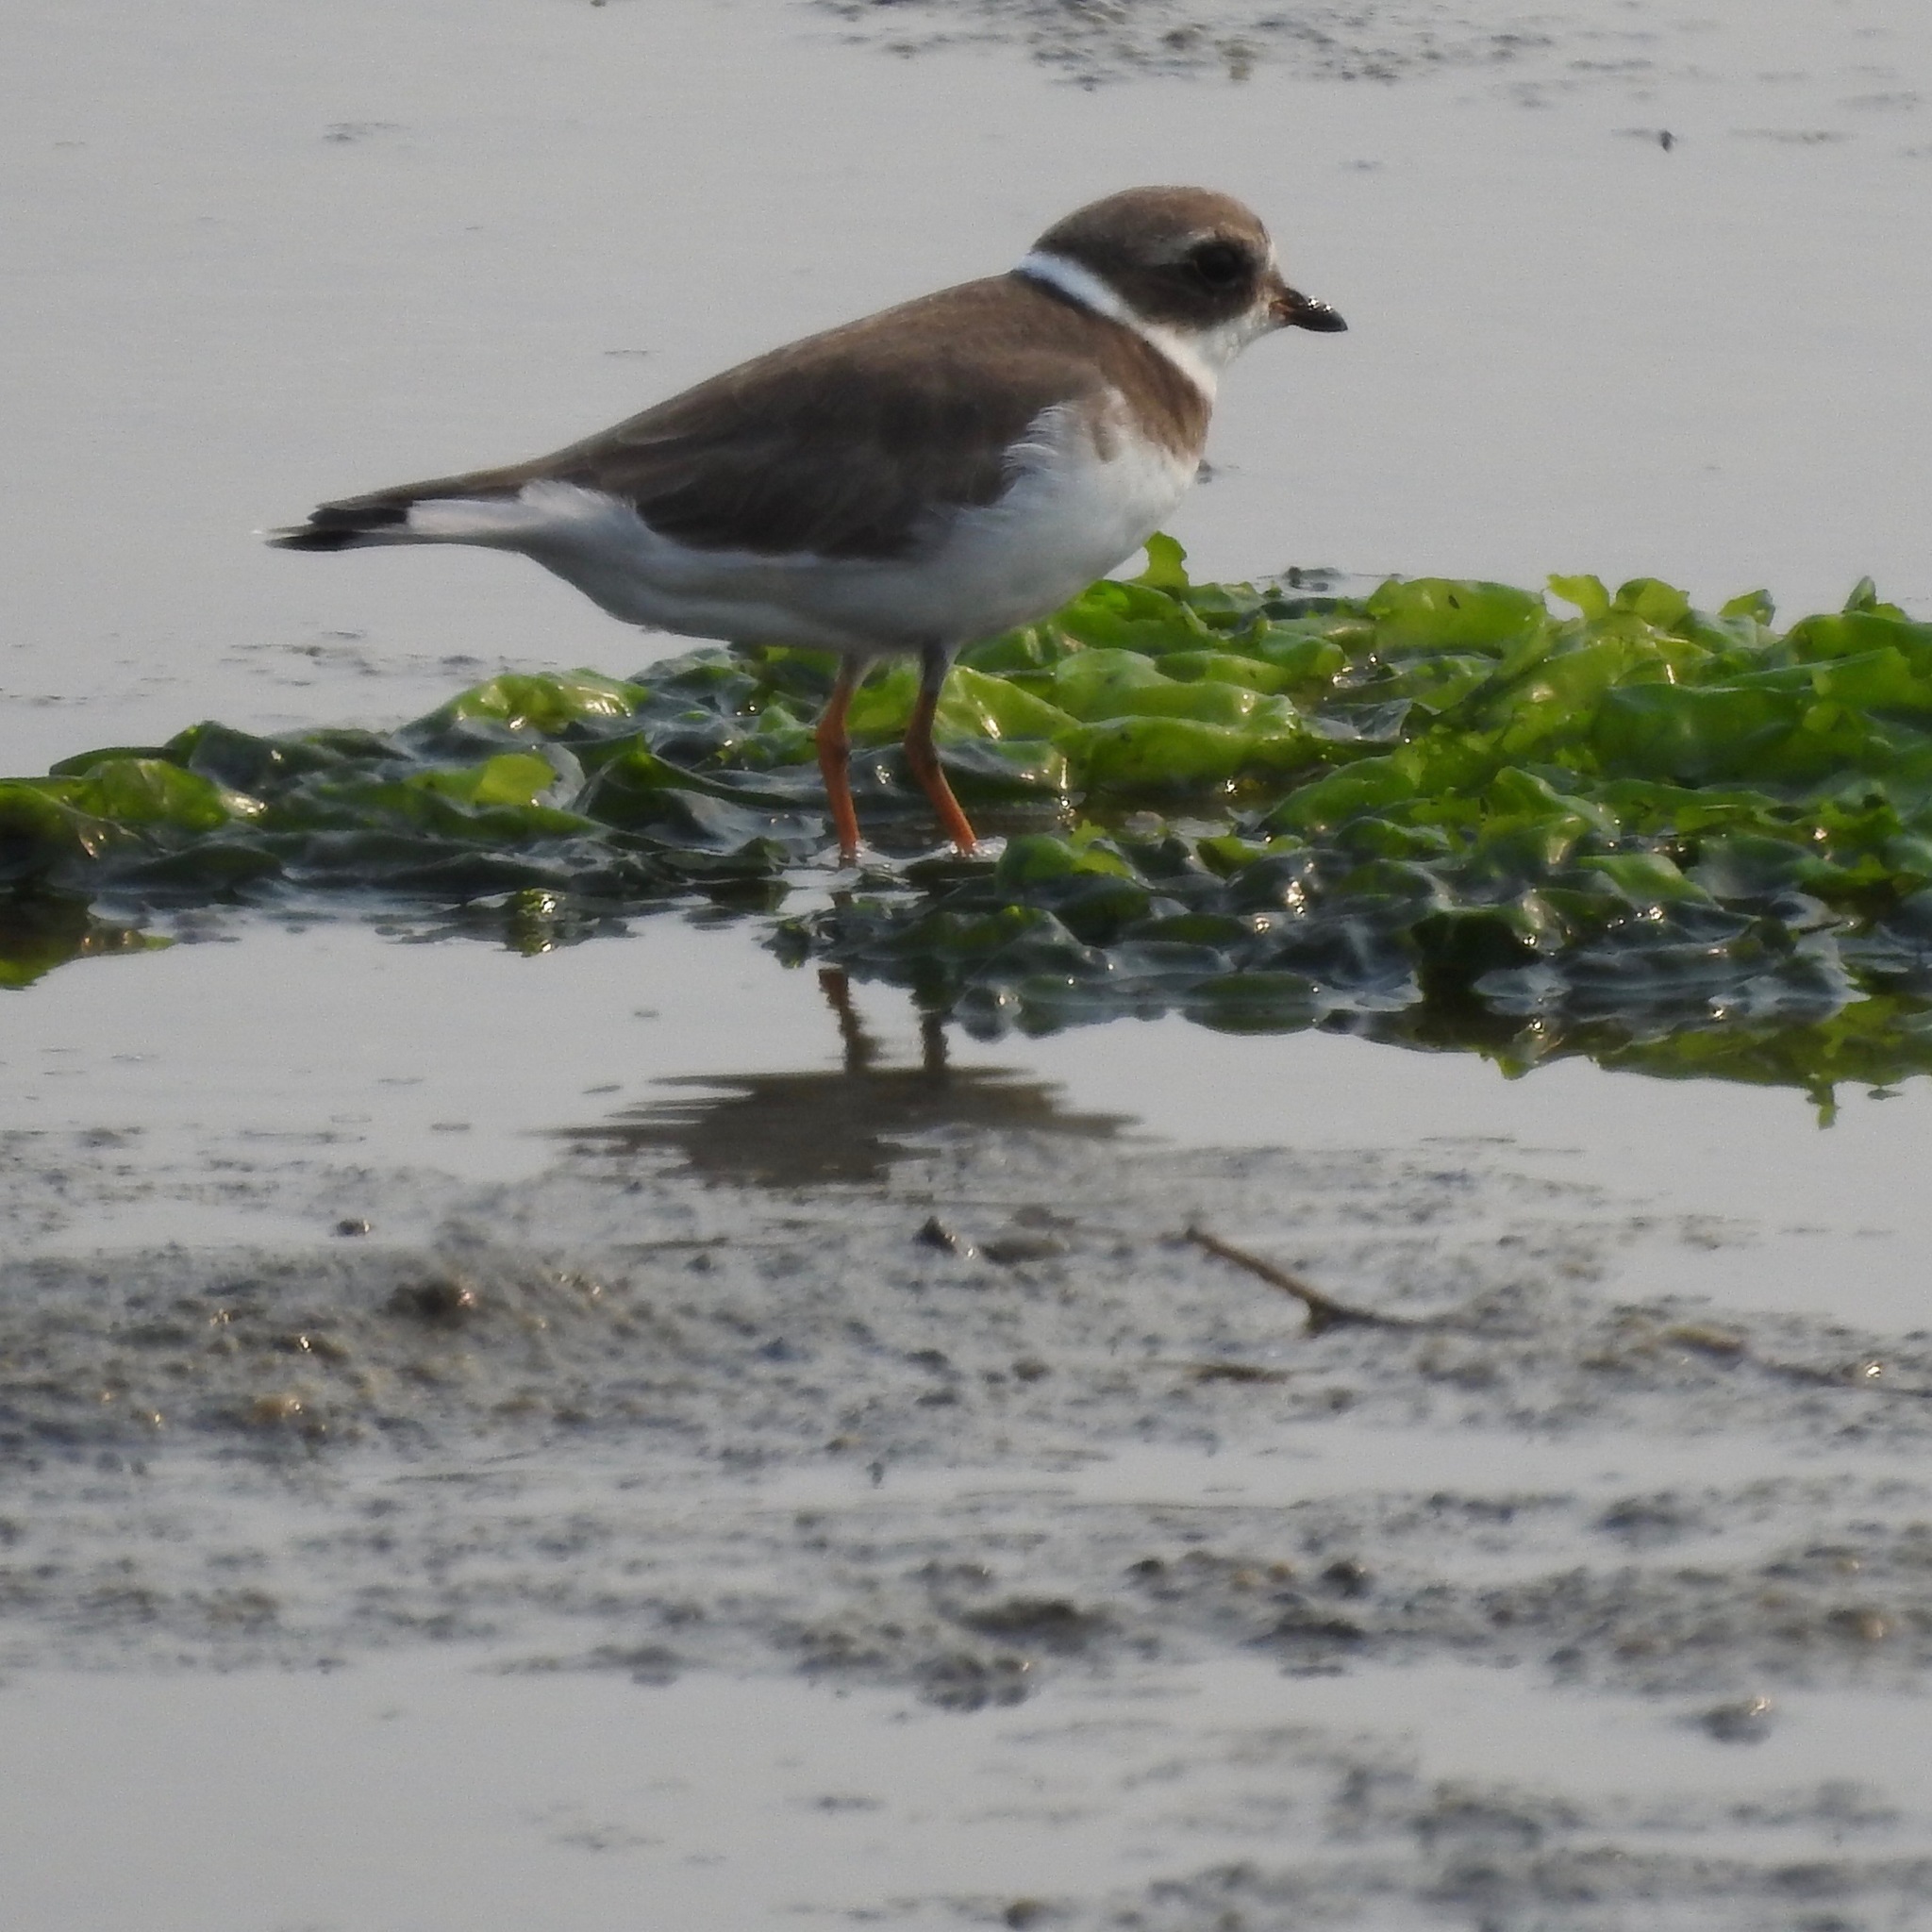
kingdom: Animalia
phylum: Chordata
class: Aves
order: Charadriiformes
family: Charadriidae
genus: Charadrius
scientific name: Charadrius semipalmatus
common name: Semipalmated plover
